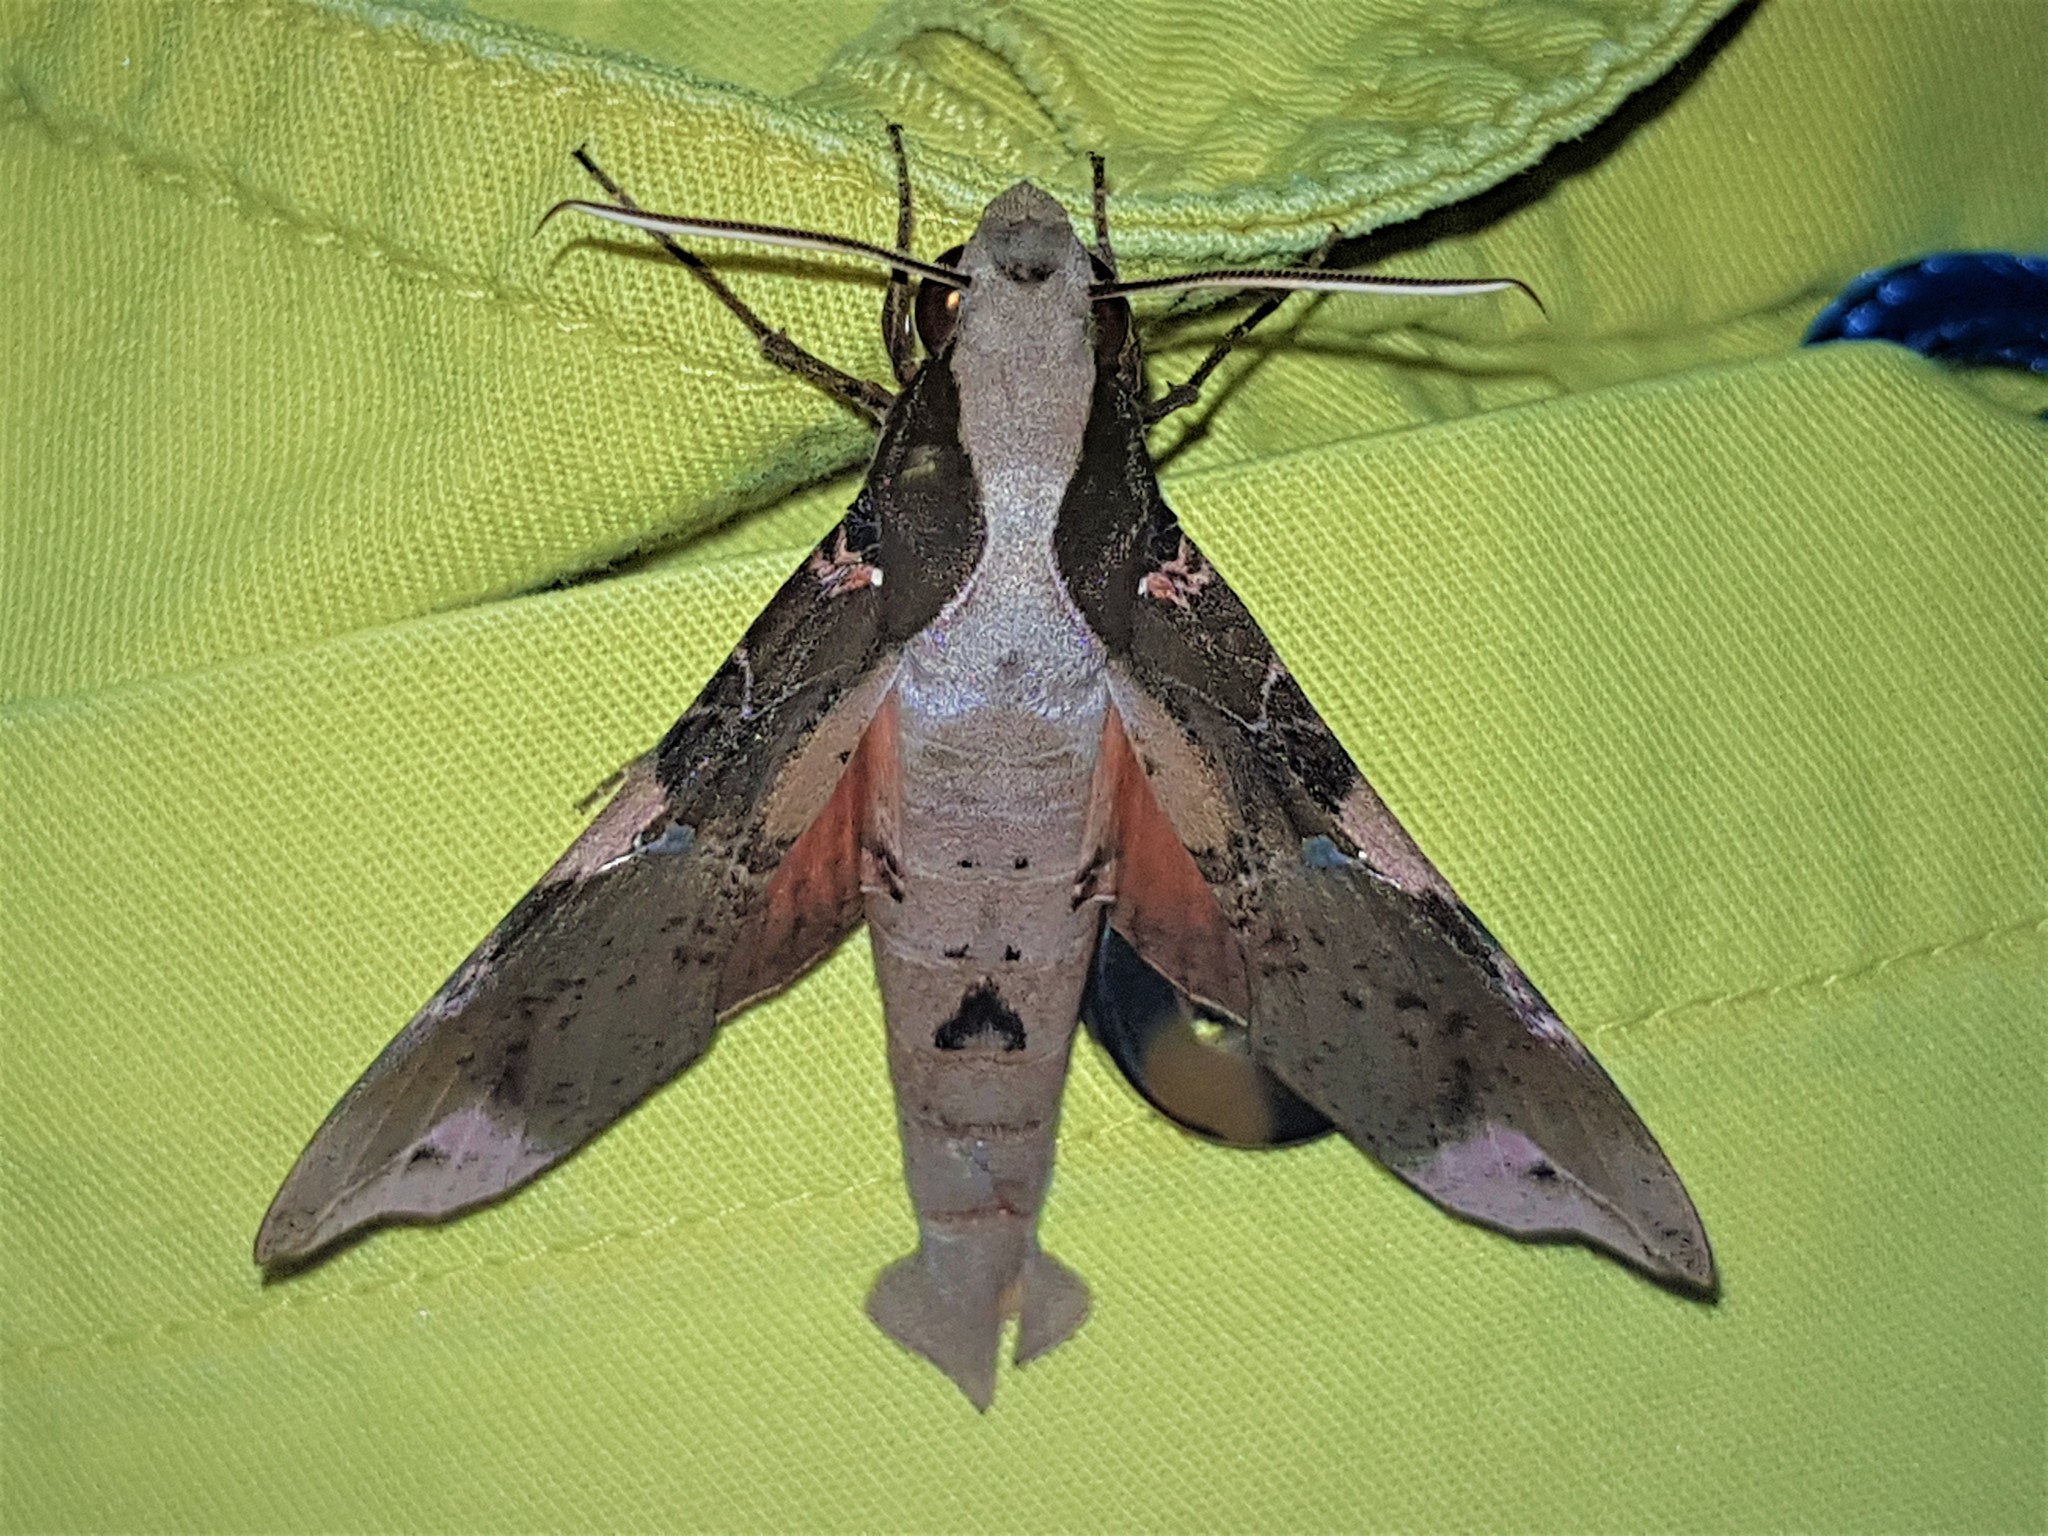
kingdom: Animalia
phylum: Arthropoda
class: Insecta
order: Lepidoptera
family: Sphingidae
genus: Callionima
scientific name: Callionima pan
